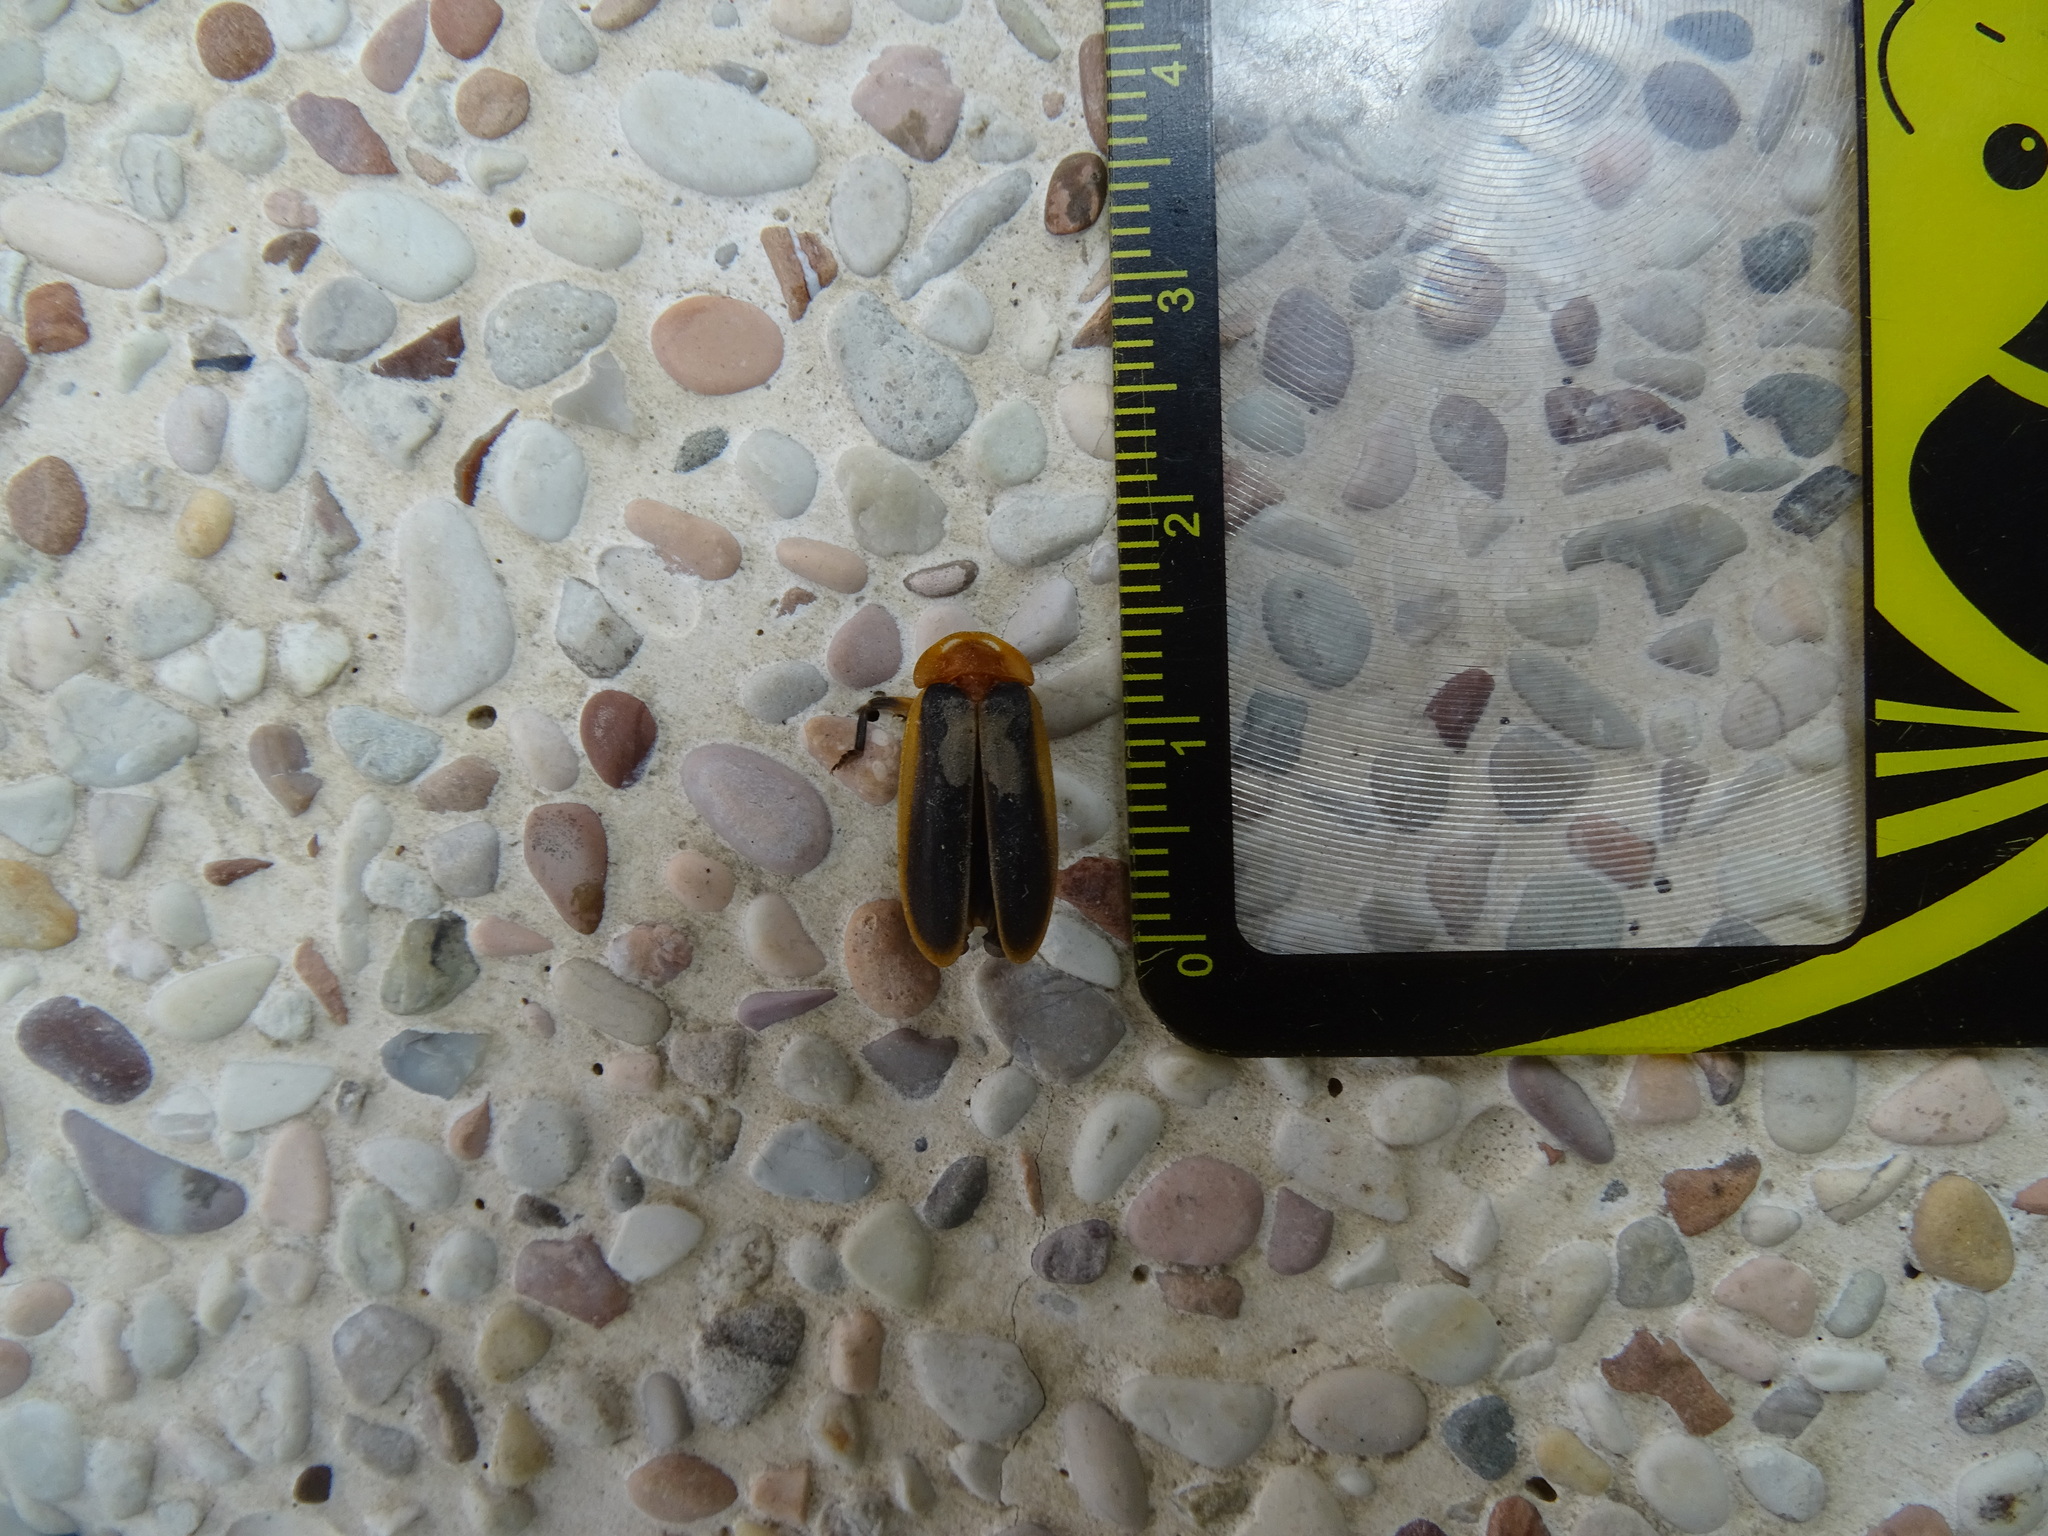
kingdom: Animalia
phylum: Arthropoda
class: Insecta
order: Coleoptera
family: Lampyridae
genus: Pyrocoelia
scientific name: Pyrocoelia analis
